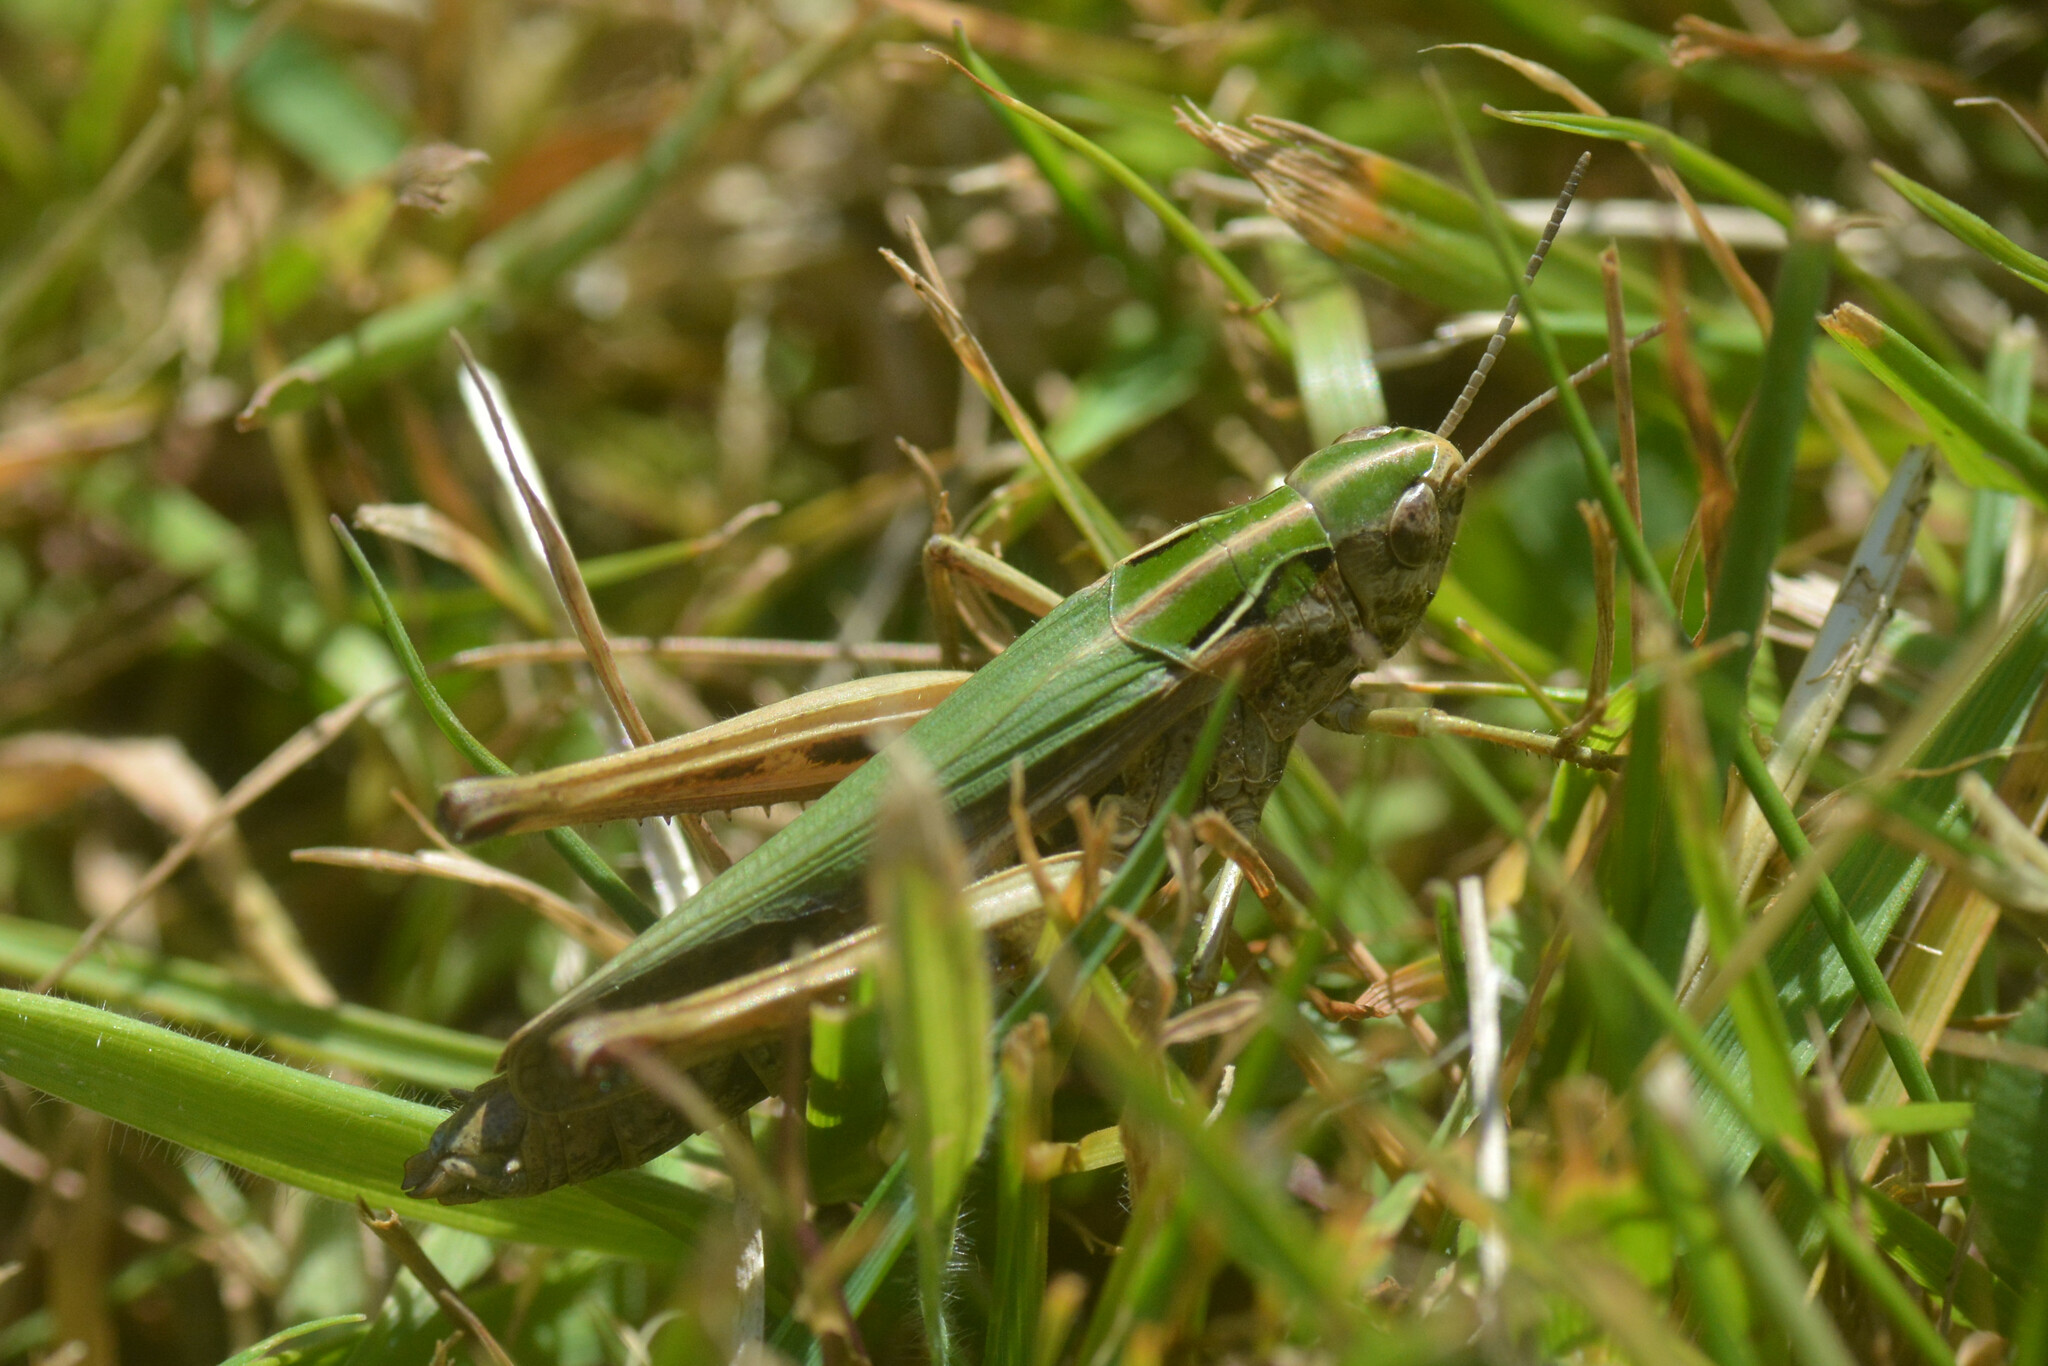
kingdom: Animalia
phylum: Arthropoda
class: Insecta
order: Orthoptera
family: Acrididae
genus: Omocestus
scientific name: Omocestus viridulus
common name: Common green grasshopper
